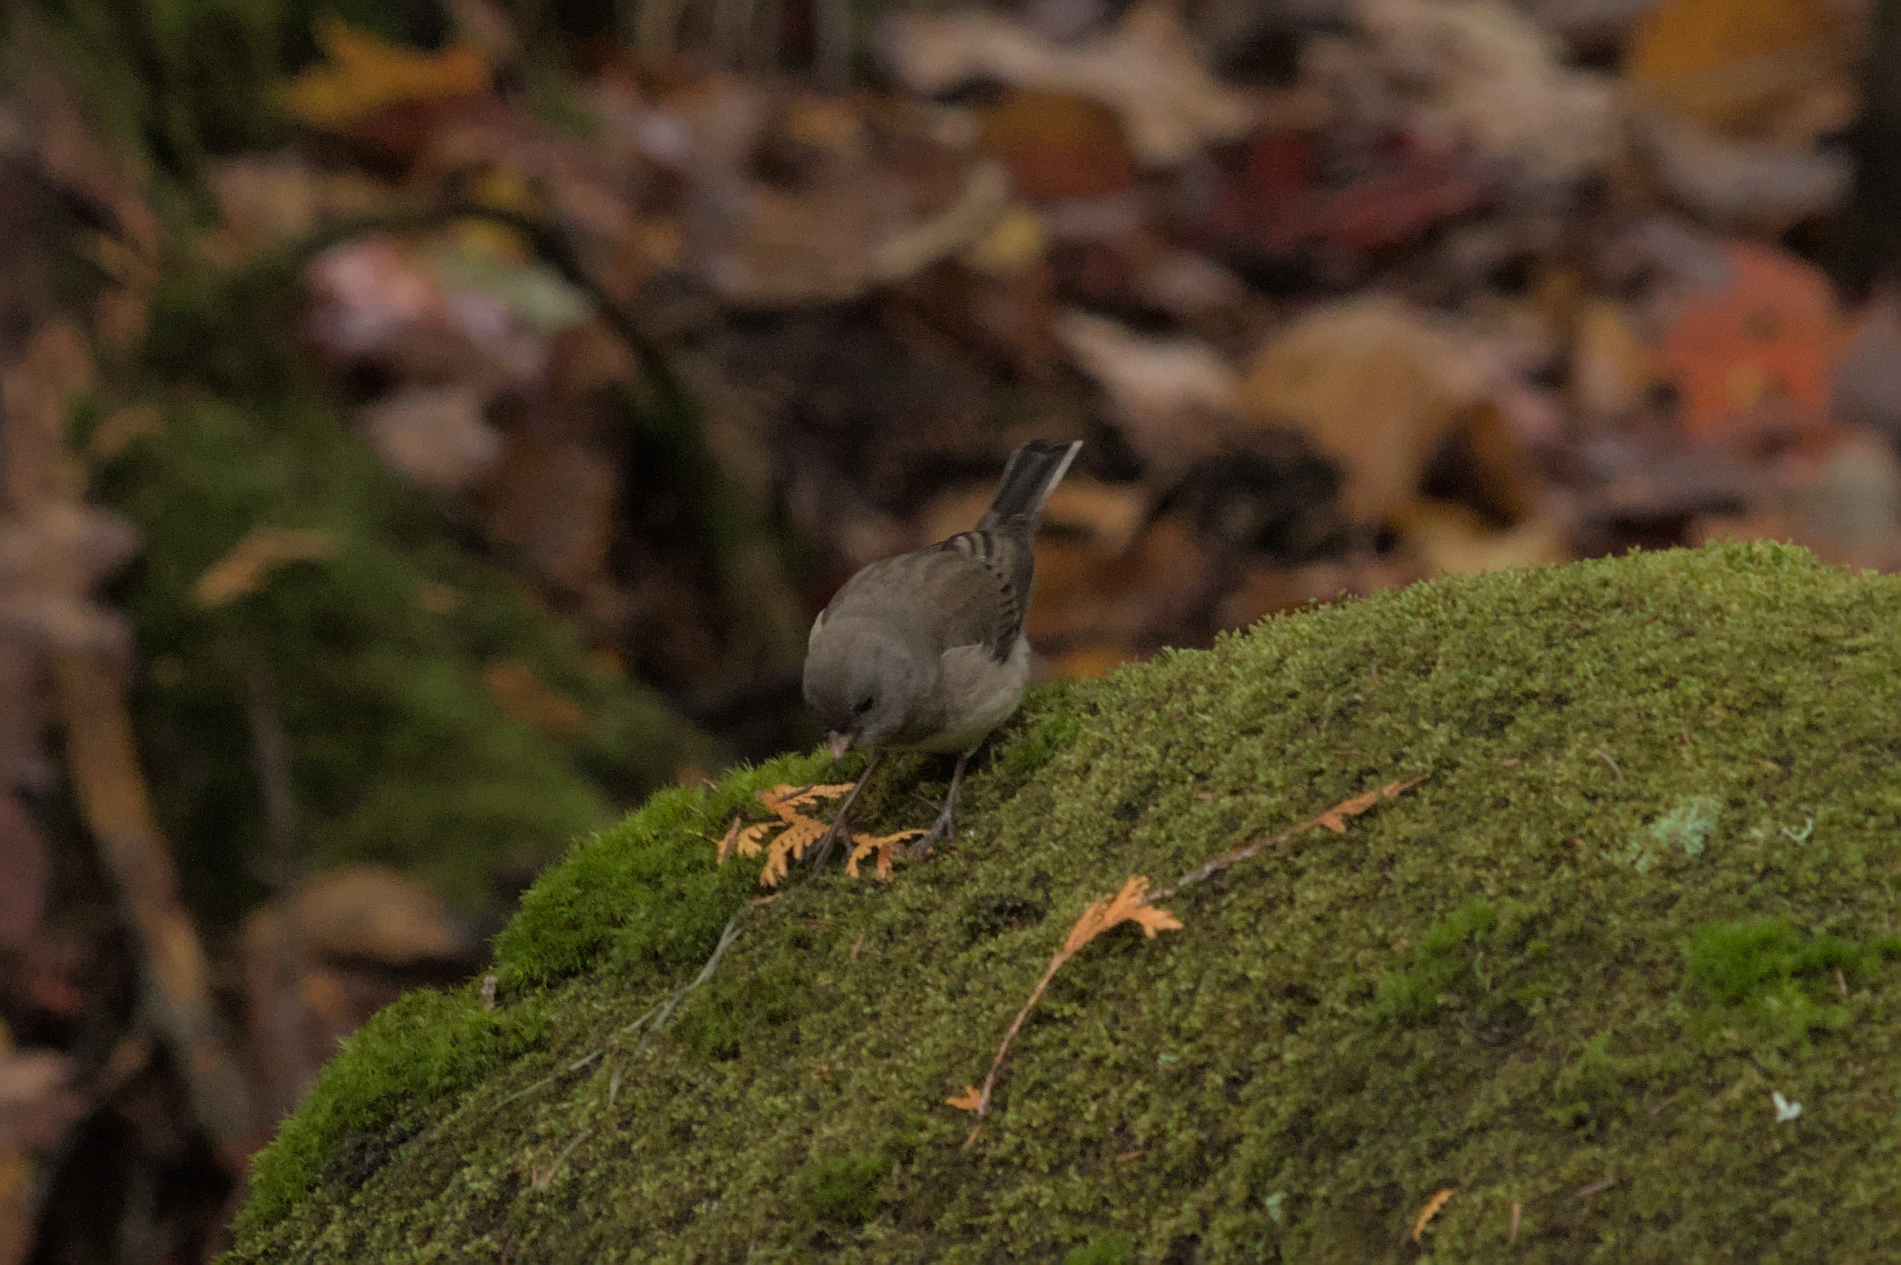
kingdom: Animalia
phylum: Chordata
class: Aves
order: Passeriformes
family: Passerellidae
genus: Junco
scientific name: Junco hyemalis
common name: Dark-eyed junco
